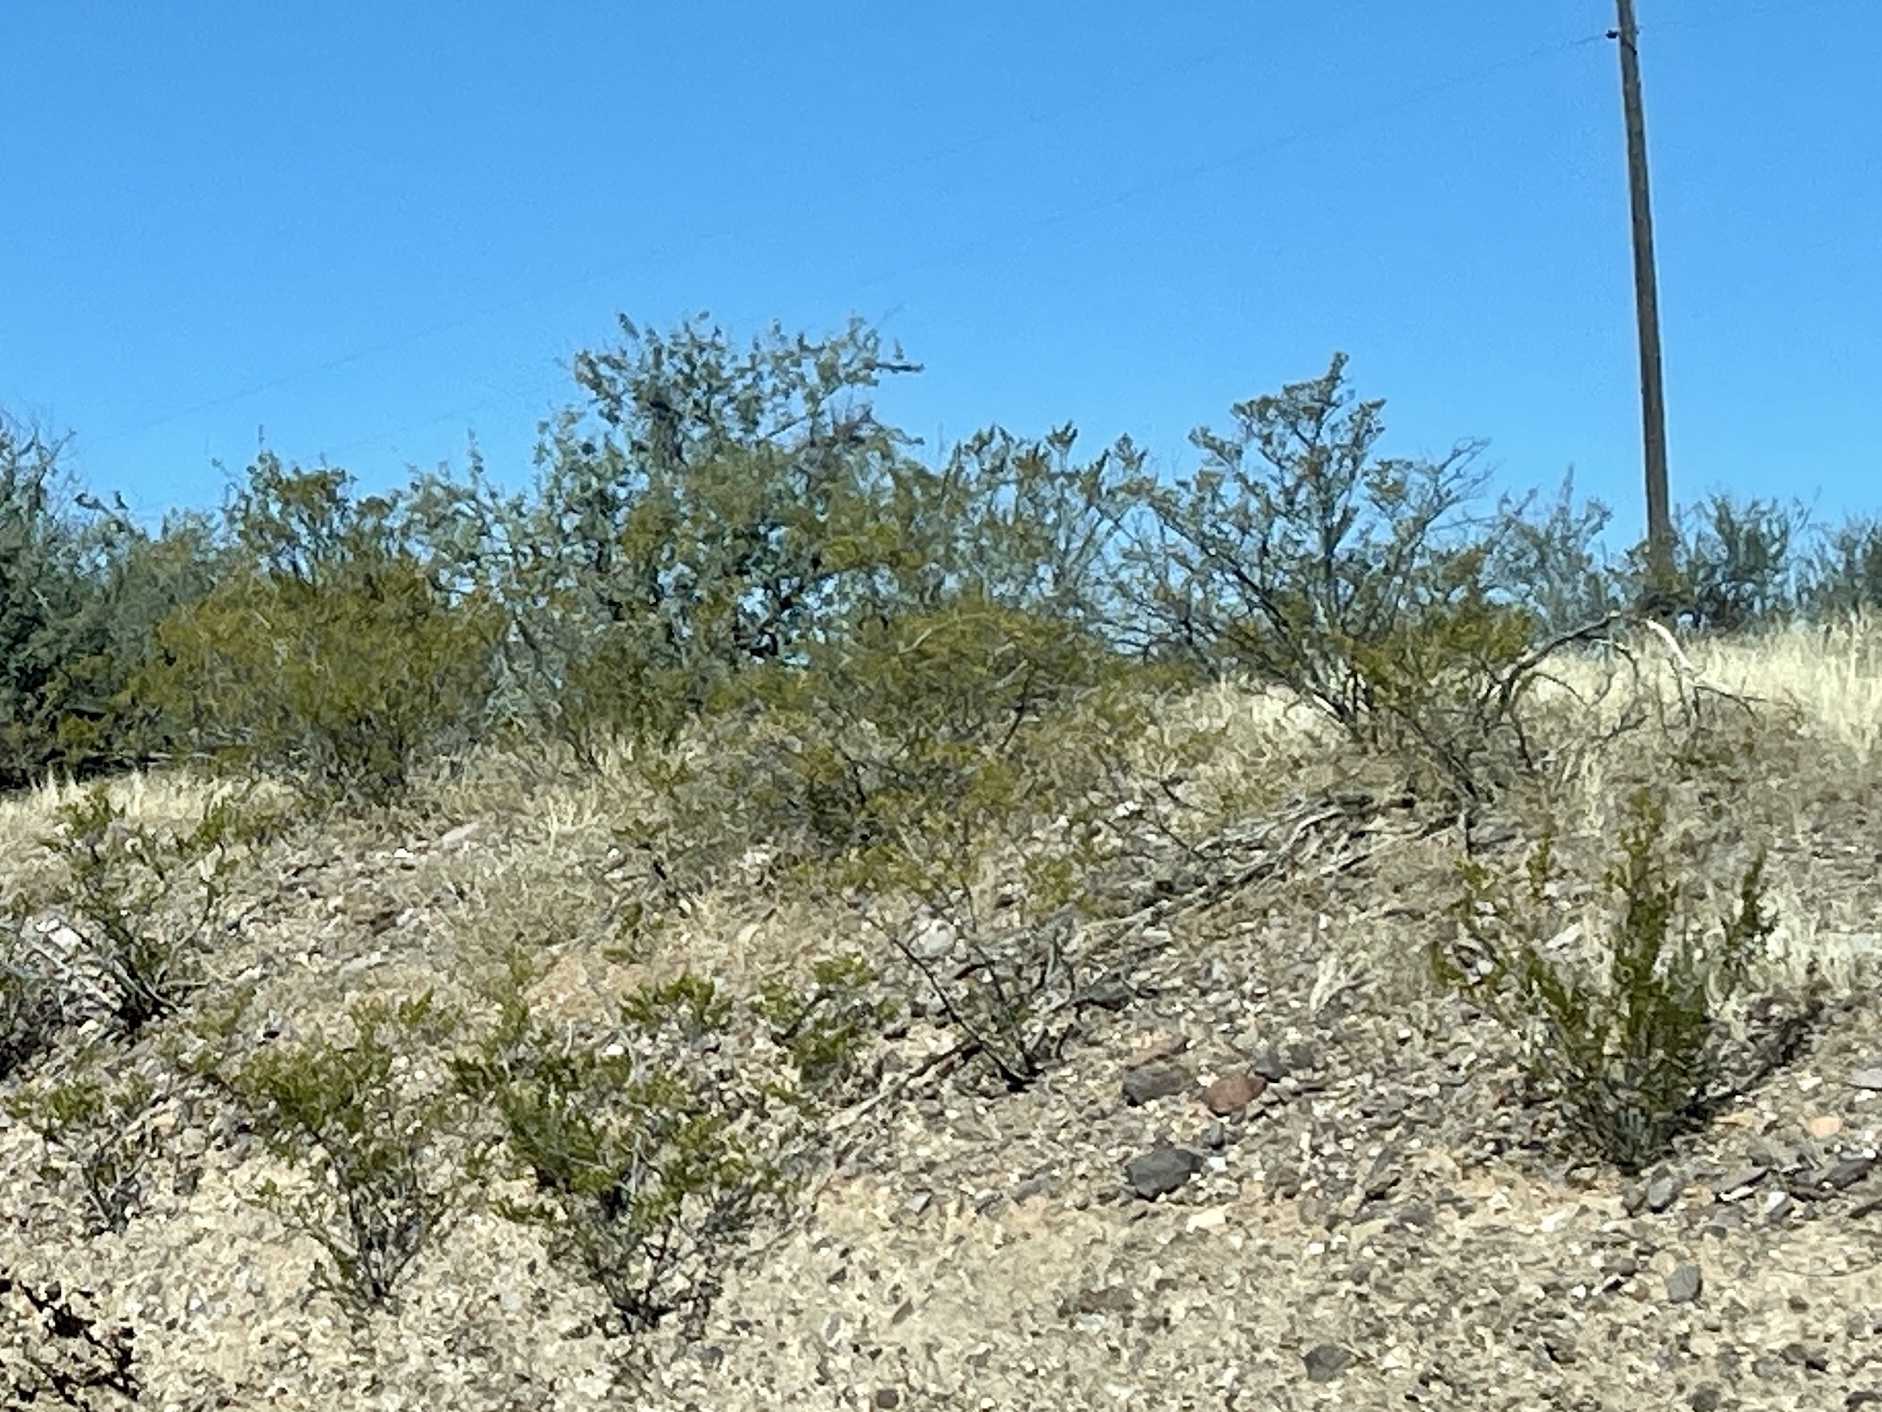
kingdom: Plantae
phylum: Tracheophyta
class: Magnoliopsida
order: Zygophyllales
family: Zygophyllaceae
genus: Larrea
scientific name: Larrea tridentata
